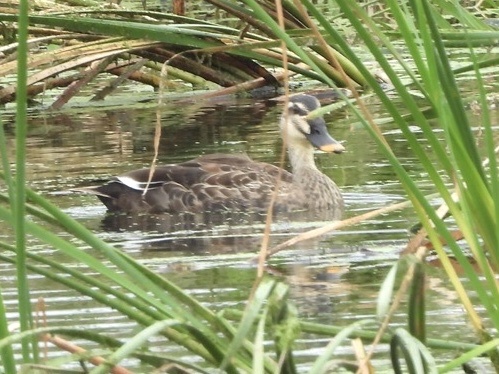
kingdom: Animalia
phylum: Chordata
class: Aves
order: Anseriformes
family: Anatidae
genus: Anas
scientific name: Anas zonorhyncha
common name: Eastern spot-billed duck
